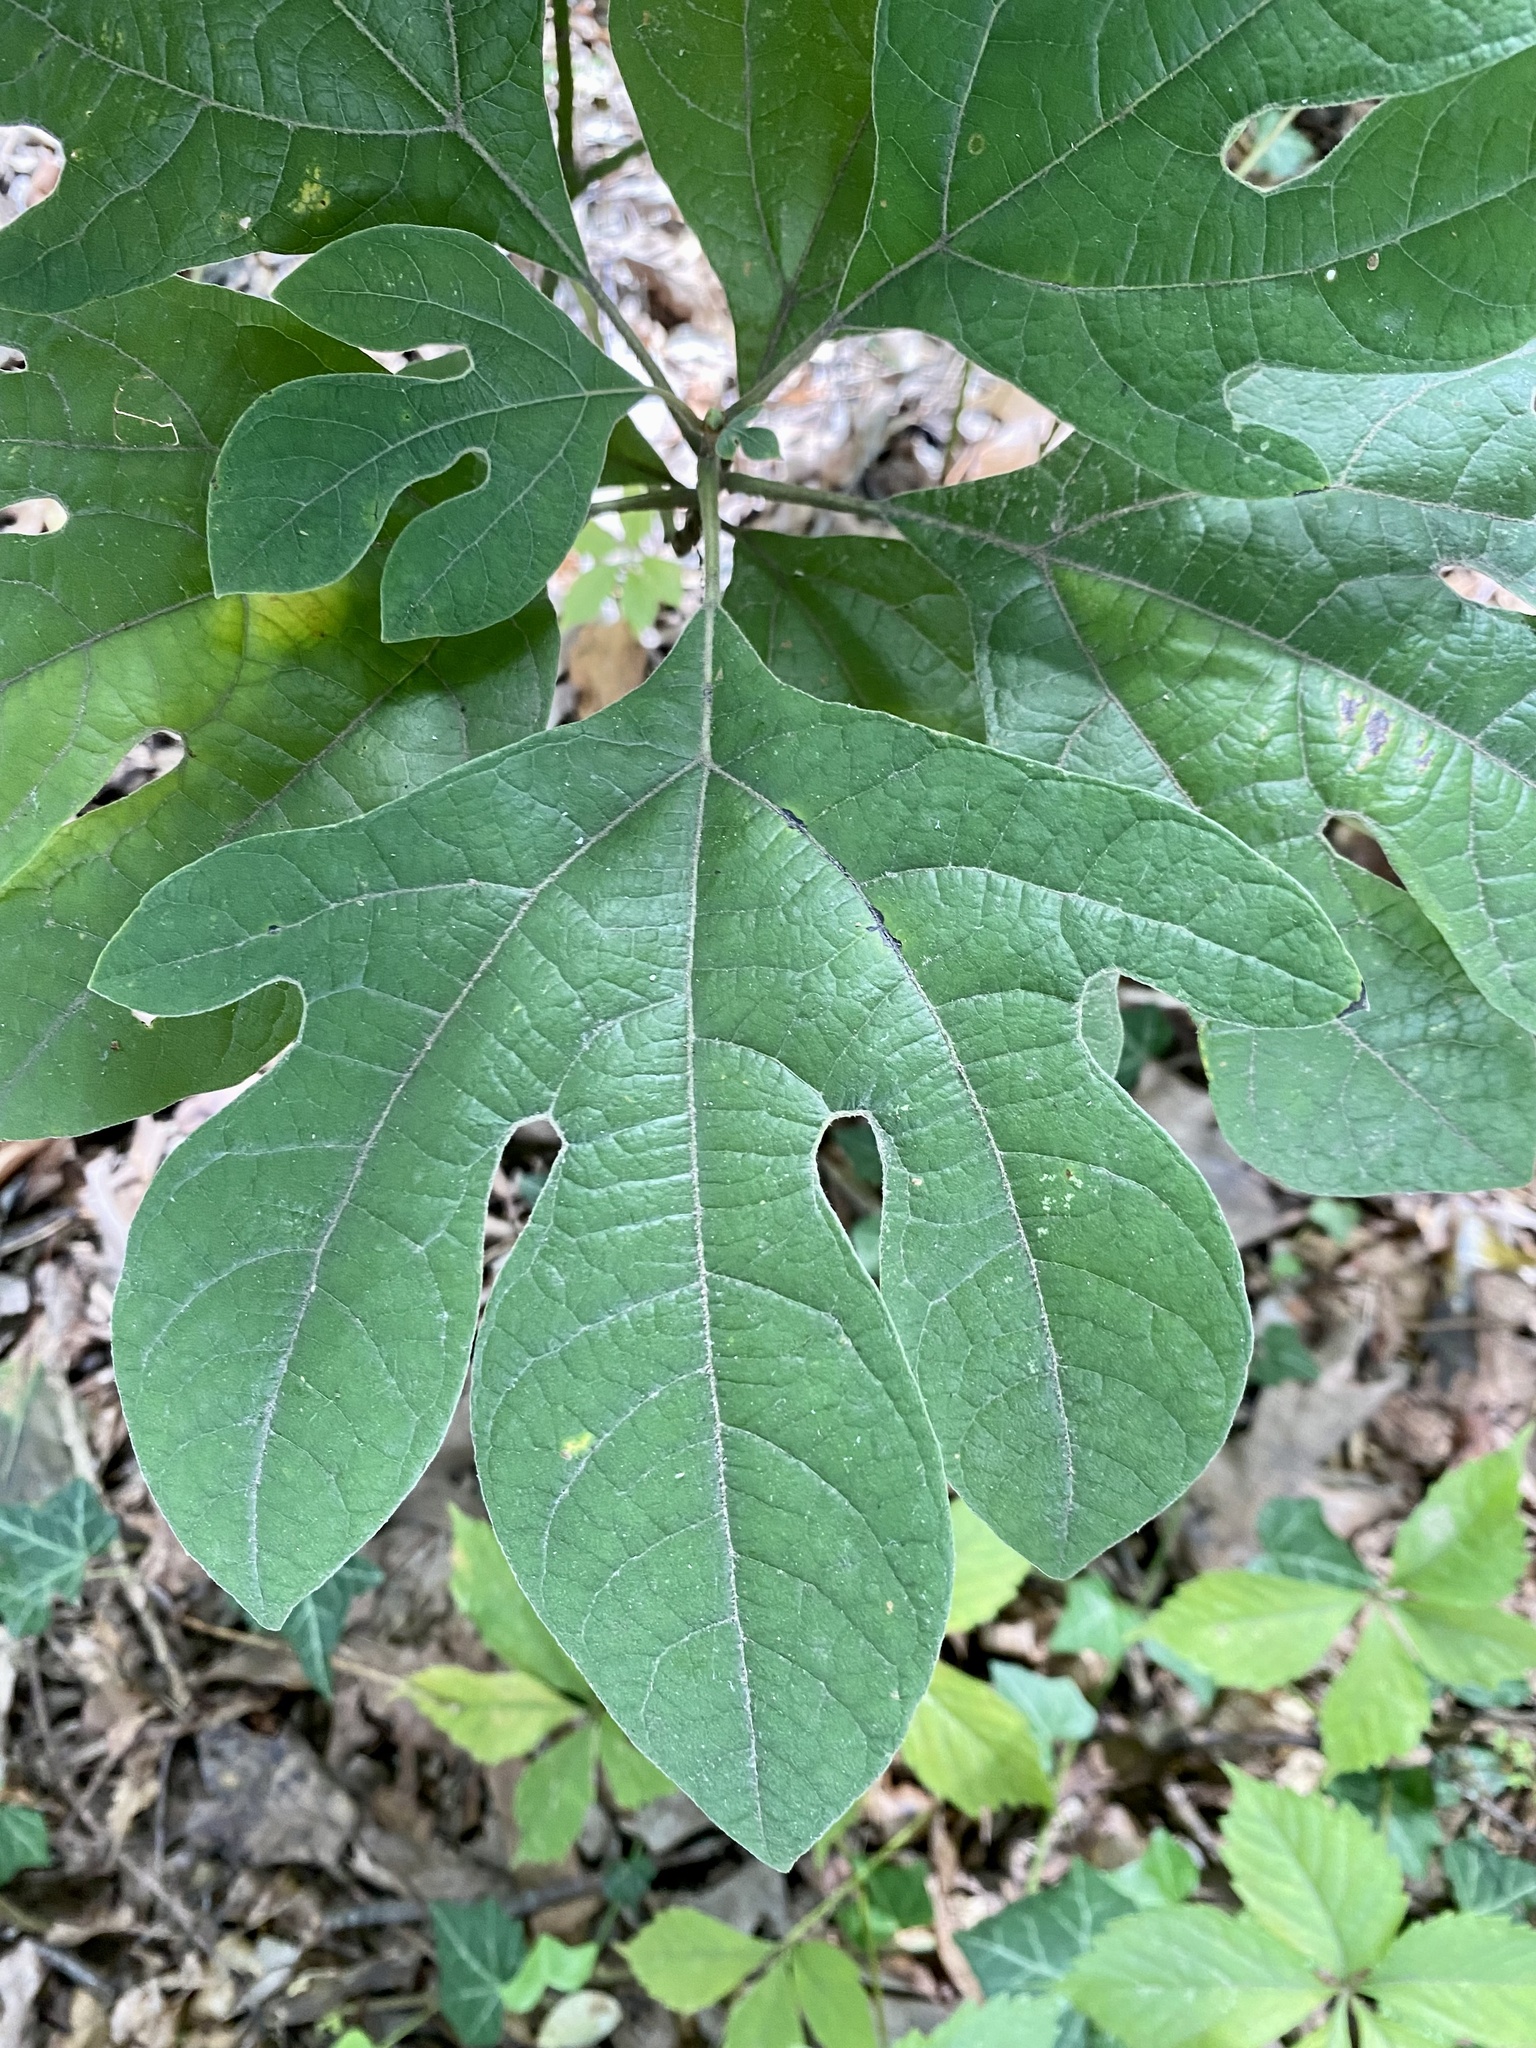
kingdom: Plantae
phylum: Tracheophyta
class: Magnoliopsida
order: Laurales
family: Lauraceae
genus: Sassafras
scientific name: Sassafras albidum
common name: Sassafras
